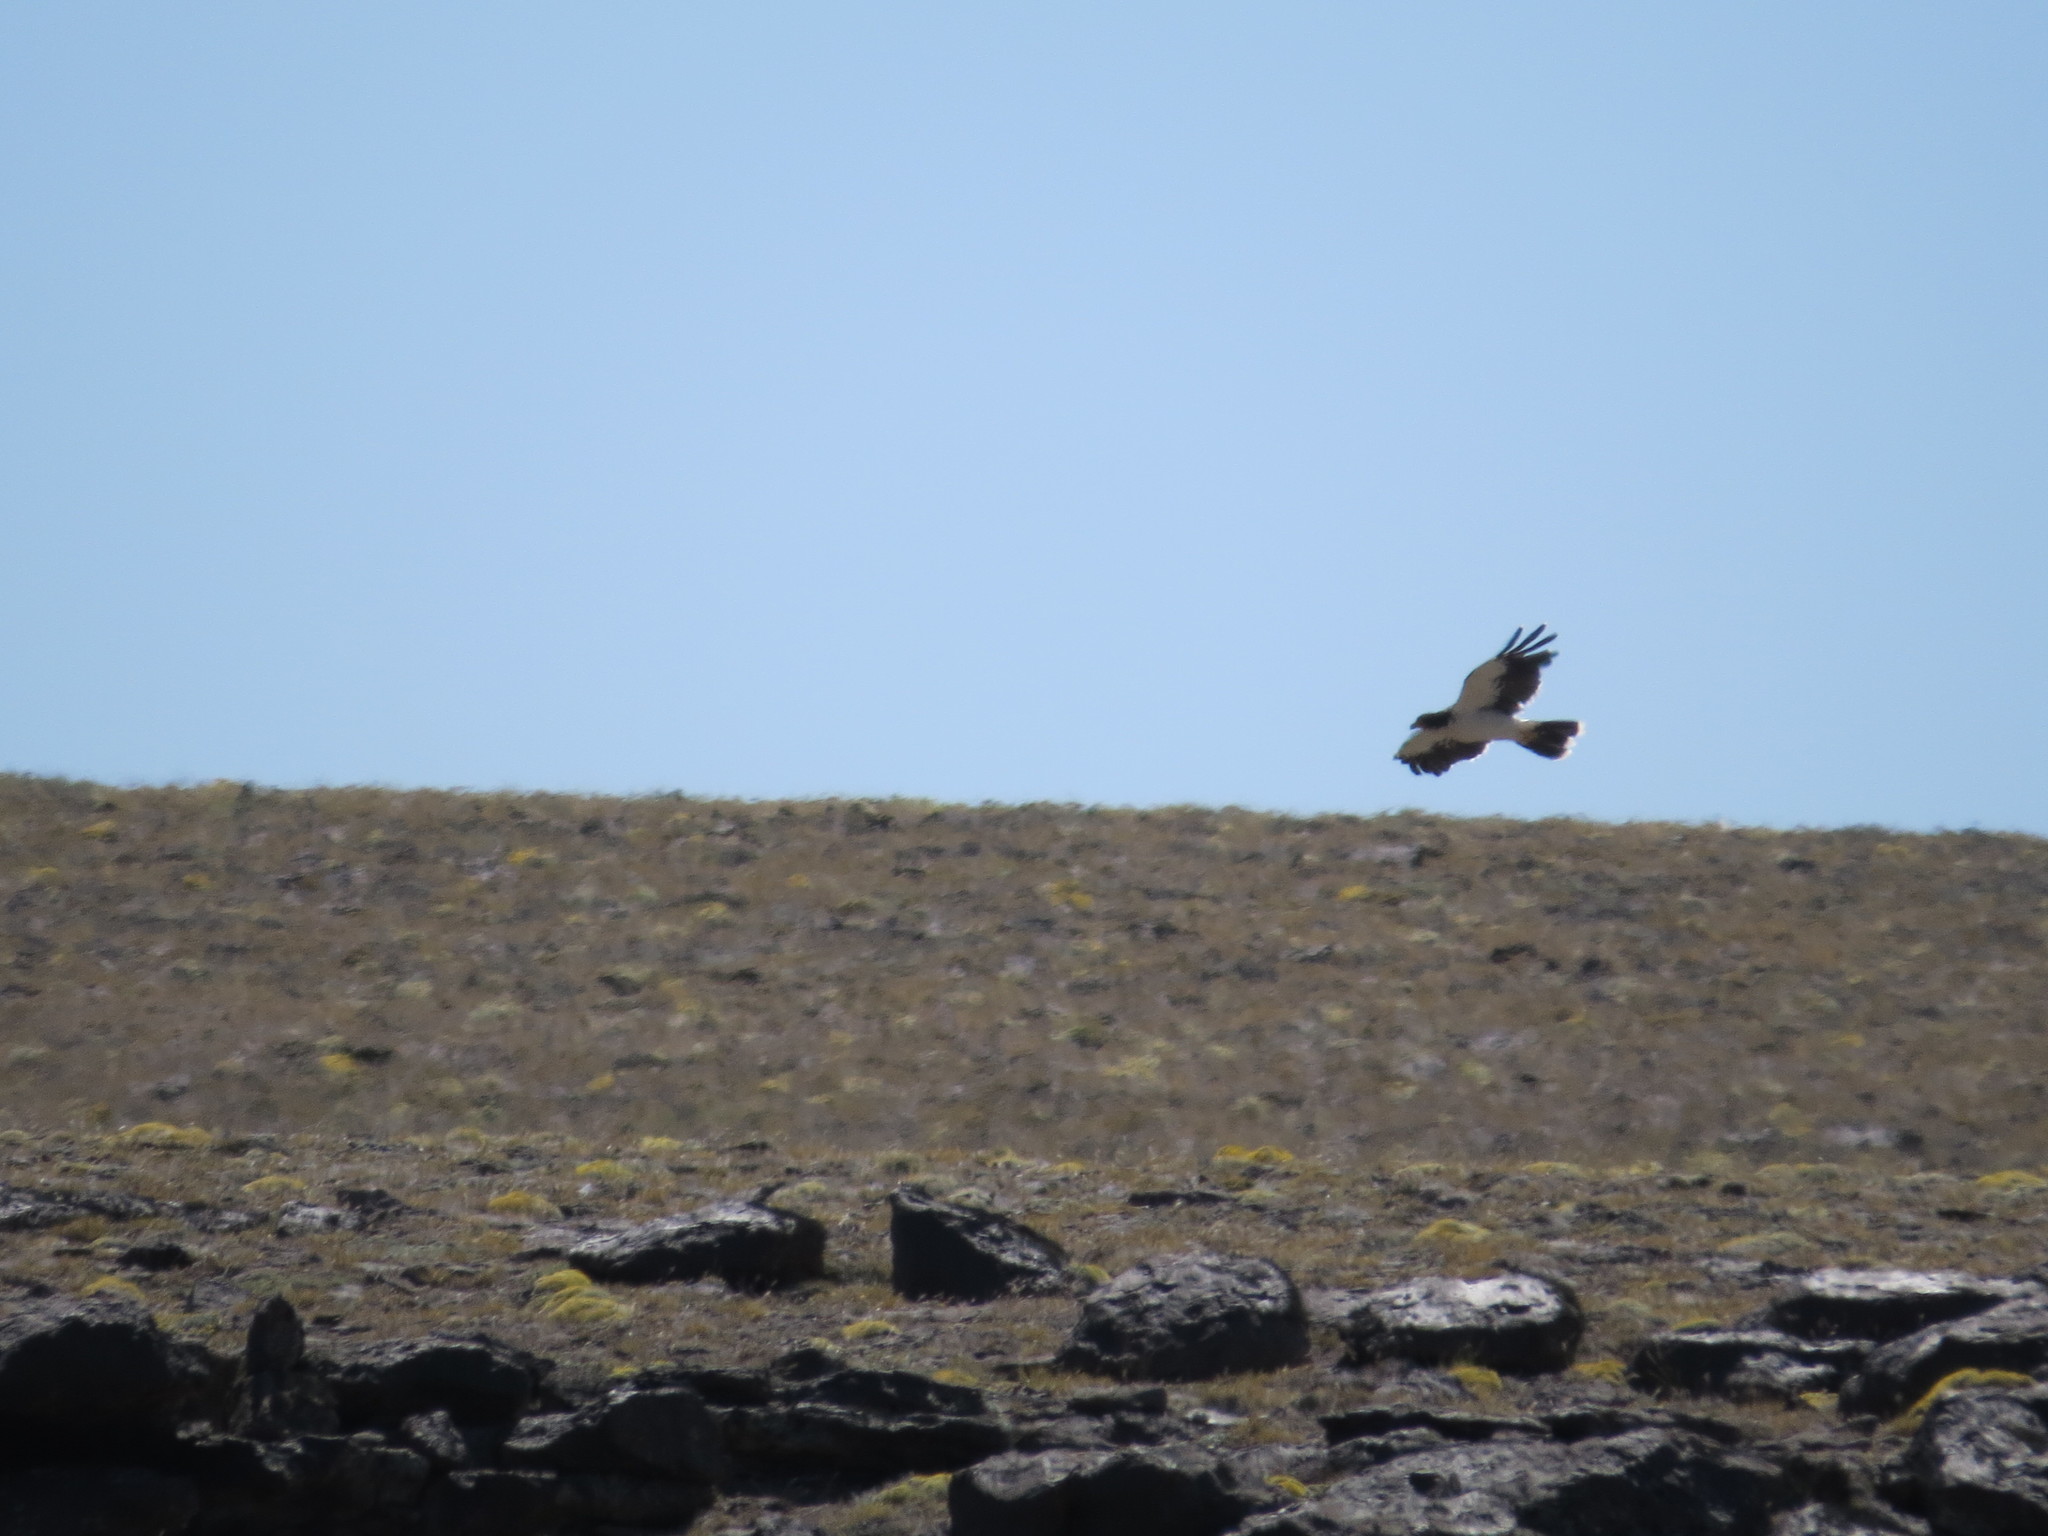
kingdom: Animalia
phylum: Chordata
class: Aves
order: Falconiformes
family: Falconidae
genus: Daptrius
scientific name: Daptrius
